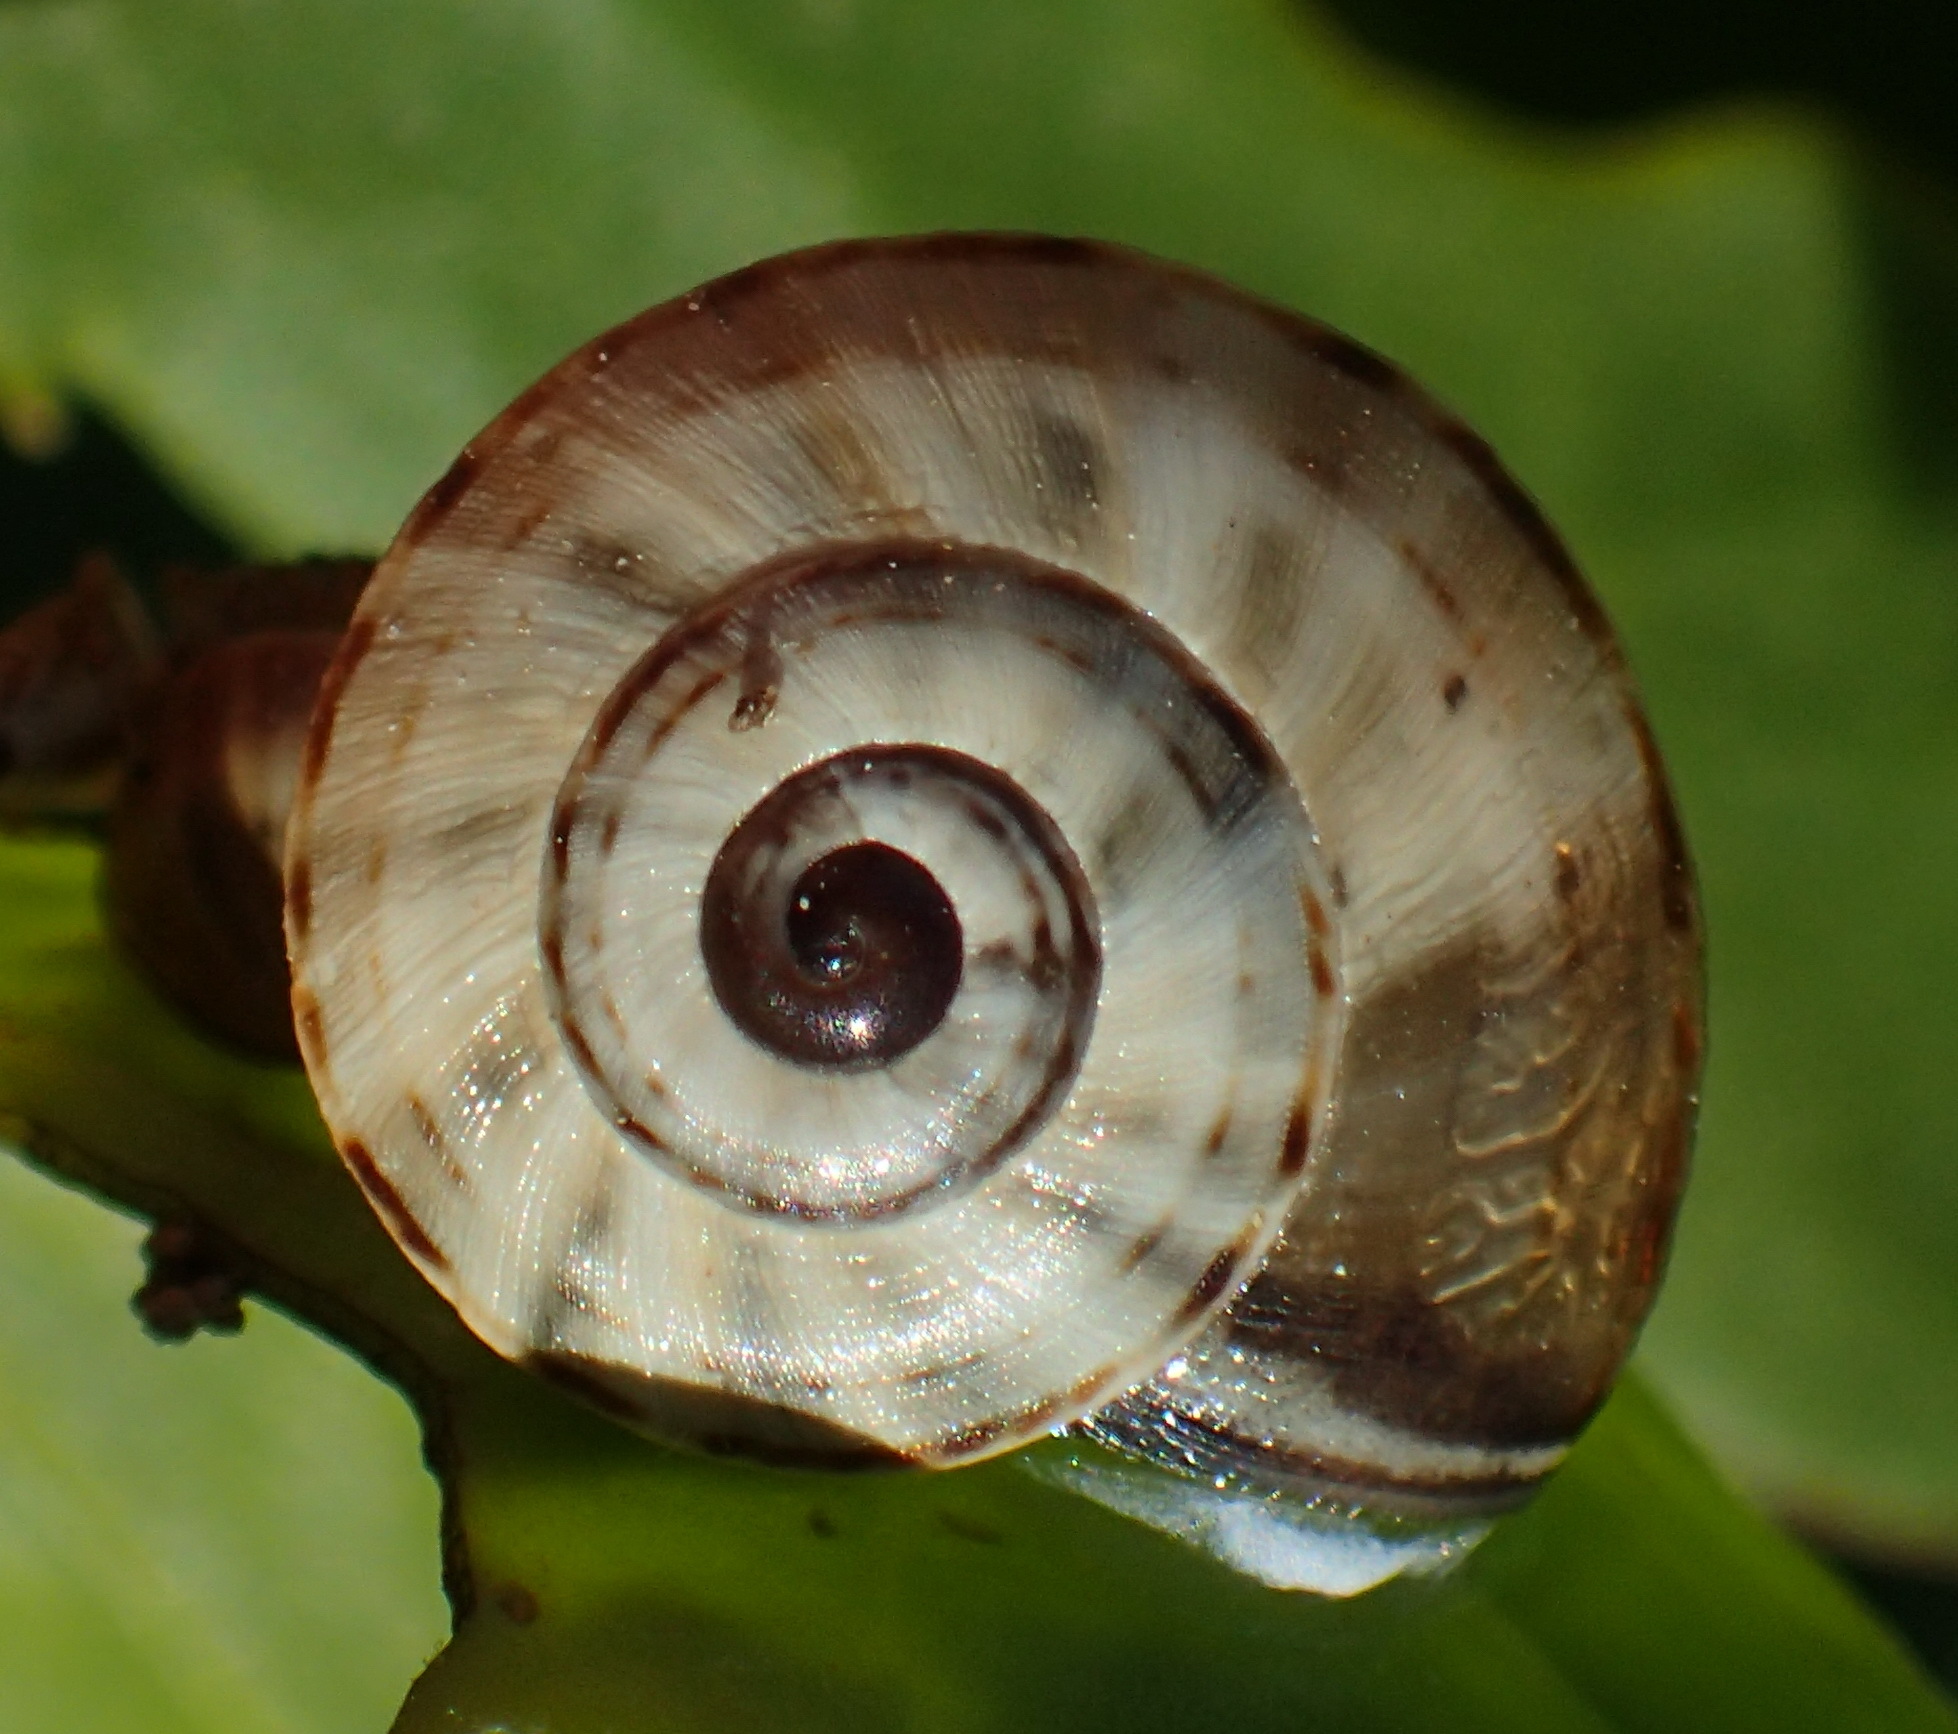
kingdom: Animalia
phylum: Mollusca
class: Gastropoda
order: Stylommatophora
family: Helicidae
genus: Theba
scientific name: Theba pisana
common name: White snail
